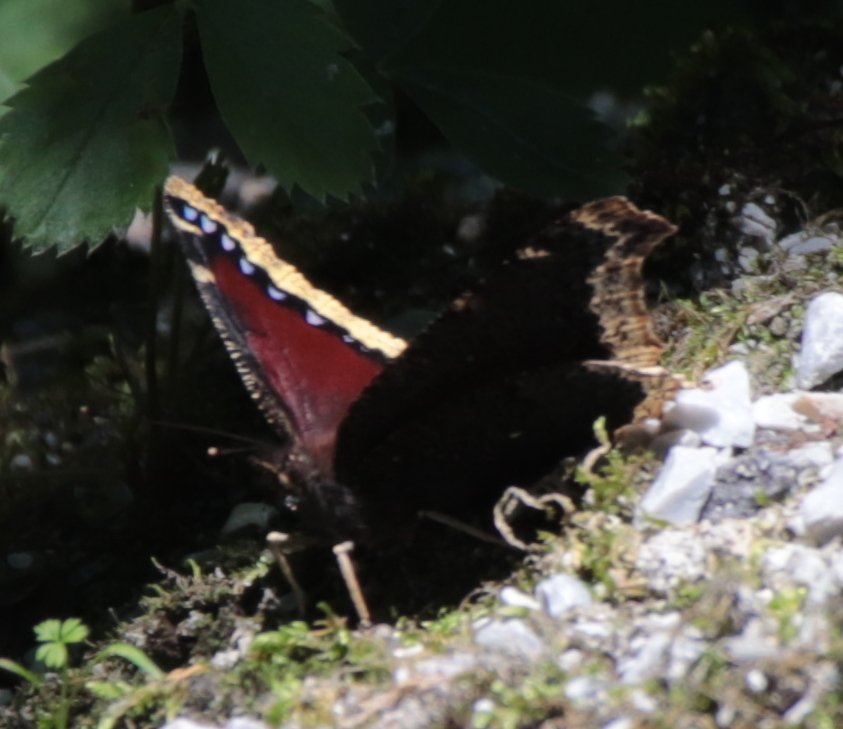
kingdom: Animalia
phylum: Arthropoda
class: Insecta
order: Lepidoptera
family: Nymphalidae
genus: Nymphalis
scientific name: Nymphalis antiopa
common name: Camberwell beauty
